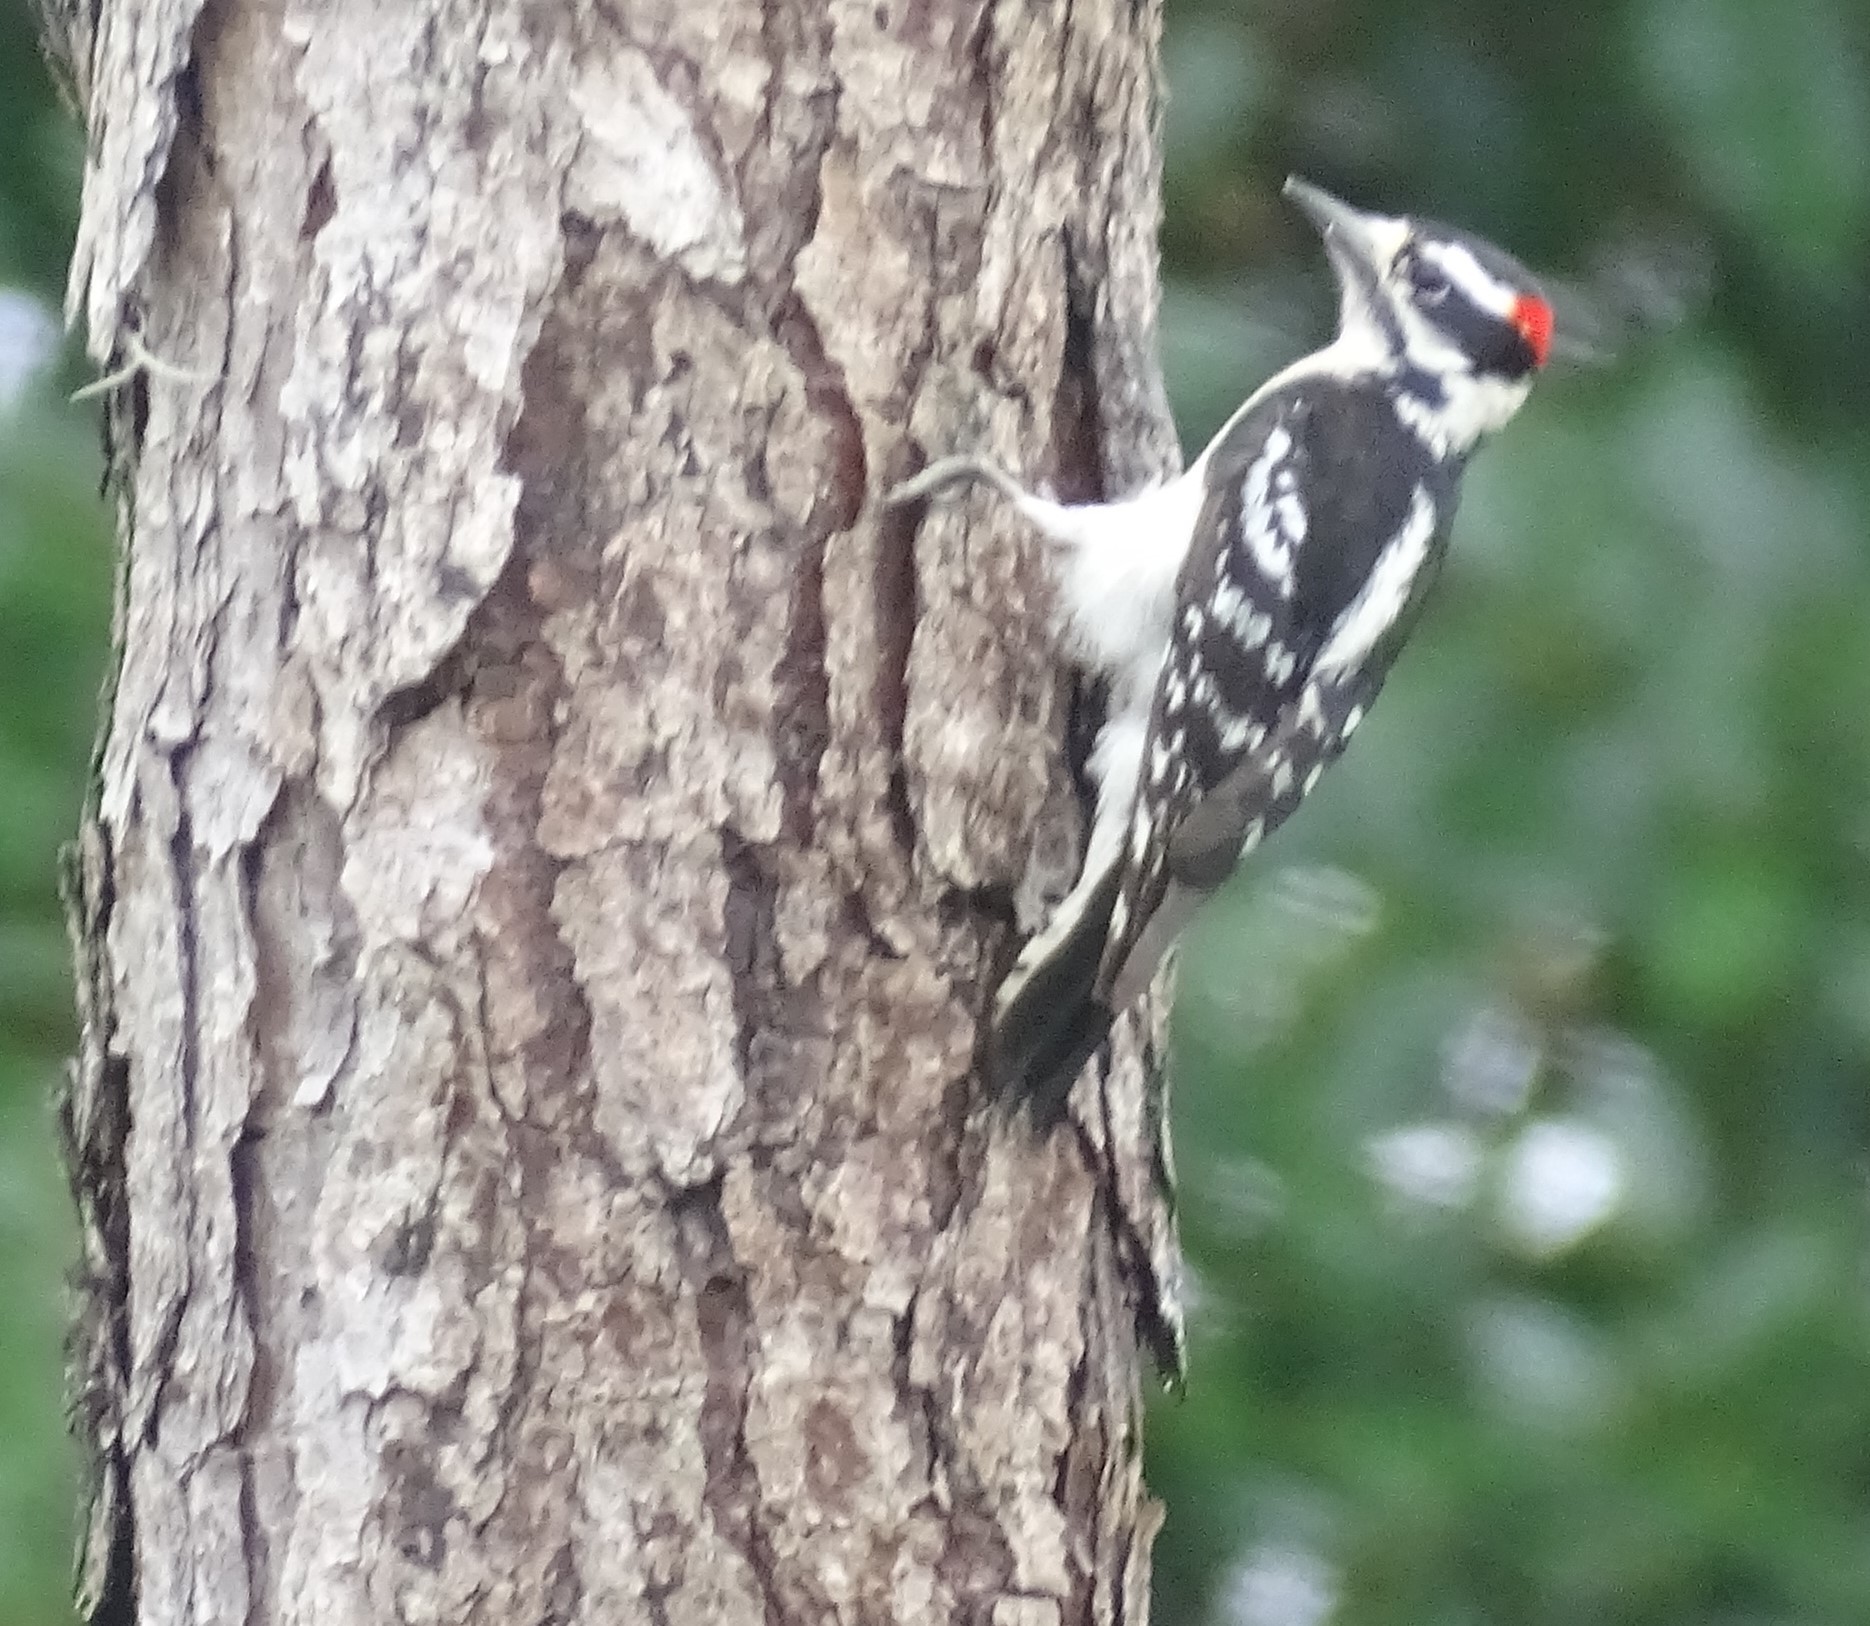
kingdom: Animalia
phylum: Chordata
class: Aves
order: Piciformes
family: Picidae
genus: Dryobates
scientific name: Dryobates pubescens
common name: Downy woodpecker
